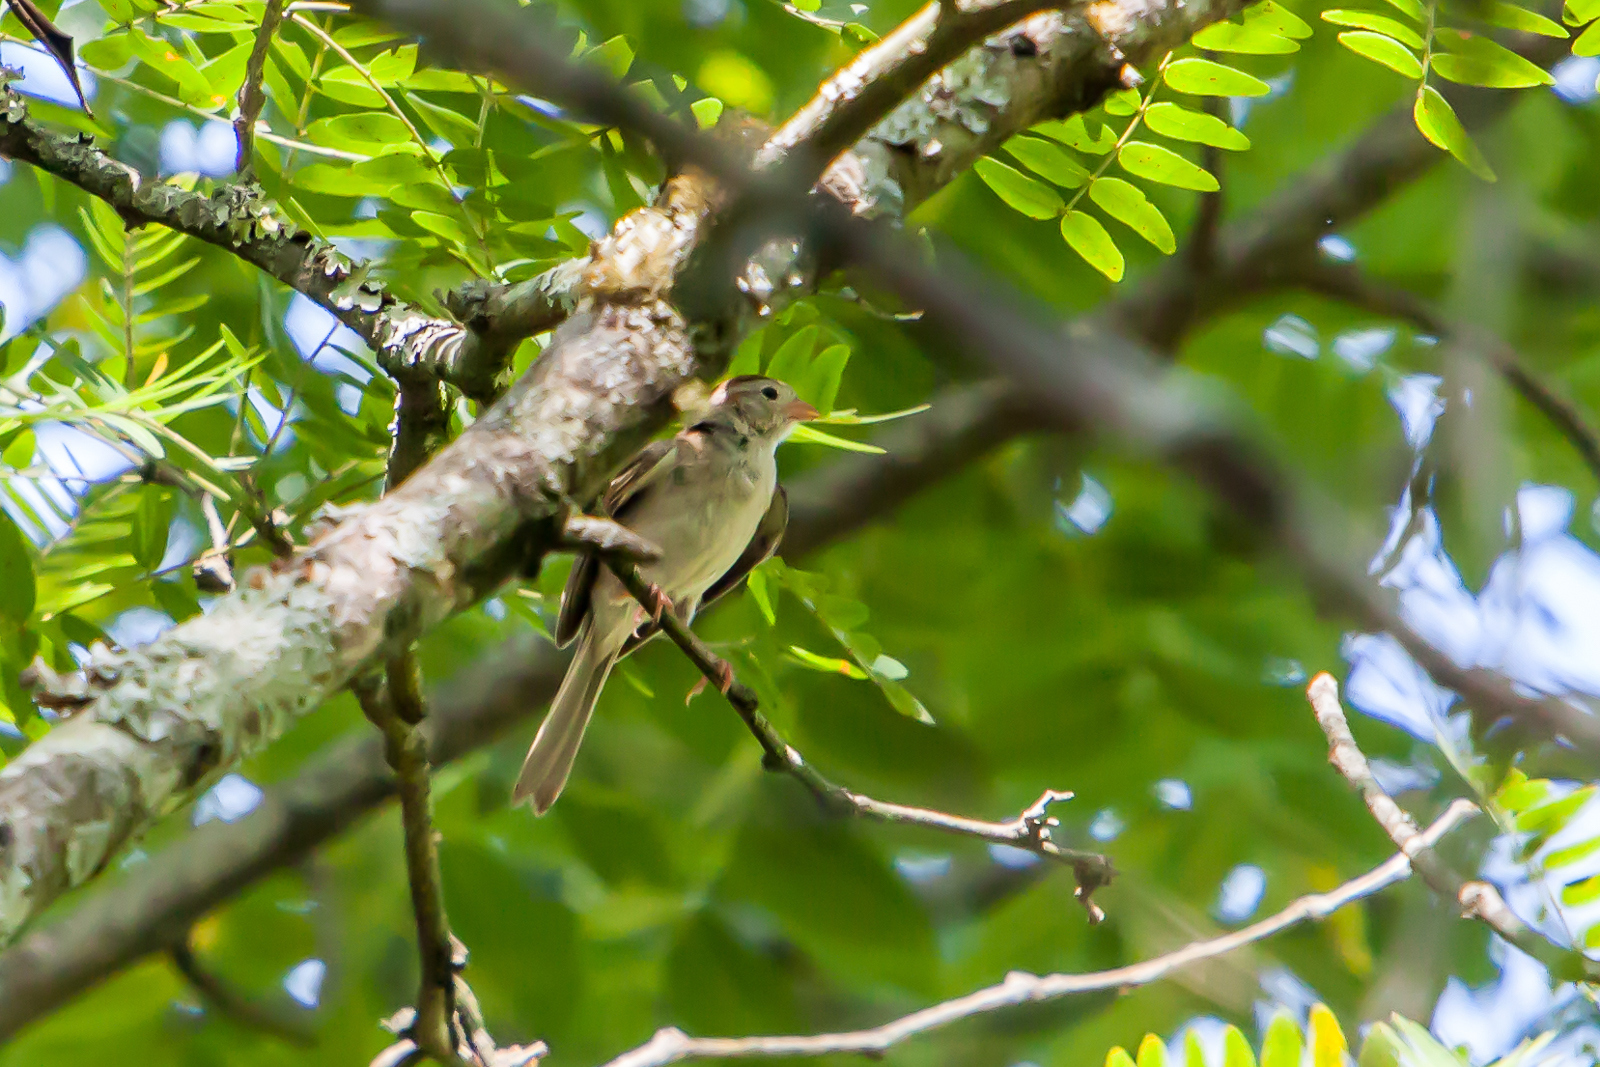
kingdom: Animalia
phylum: Chordata
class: Aves
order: Passeriformes
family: Passerellidae
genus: Spizella
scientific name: Spizella pusilla
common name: Field sparrow
